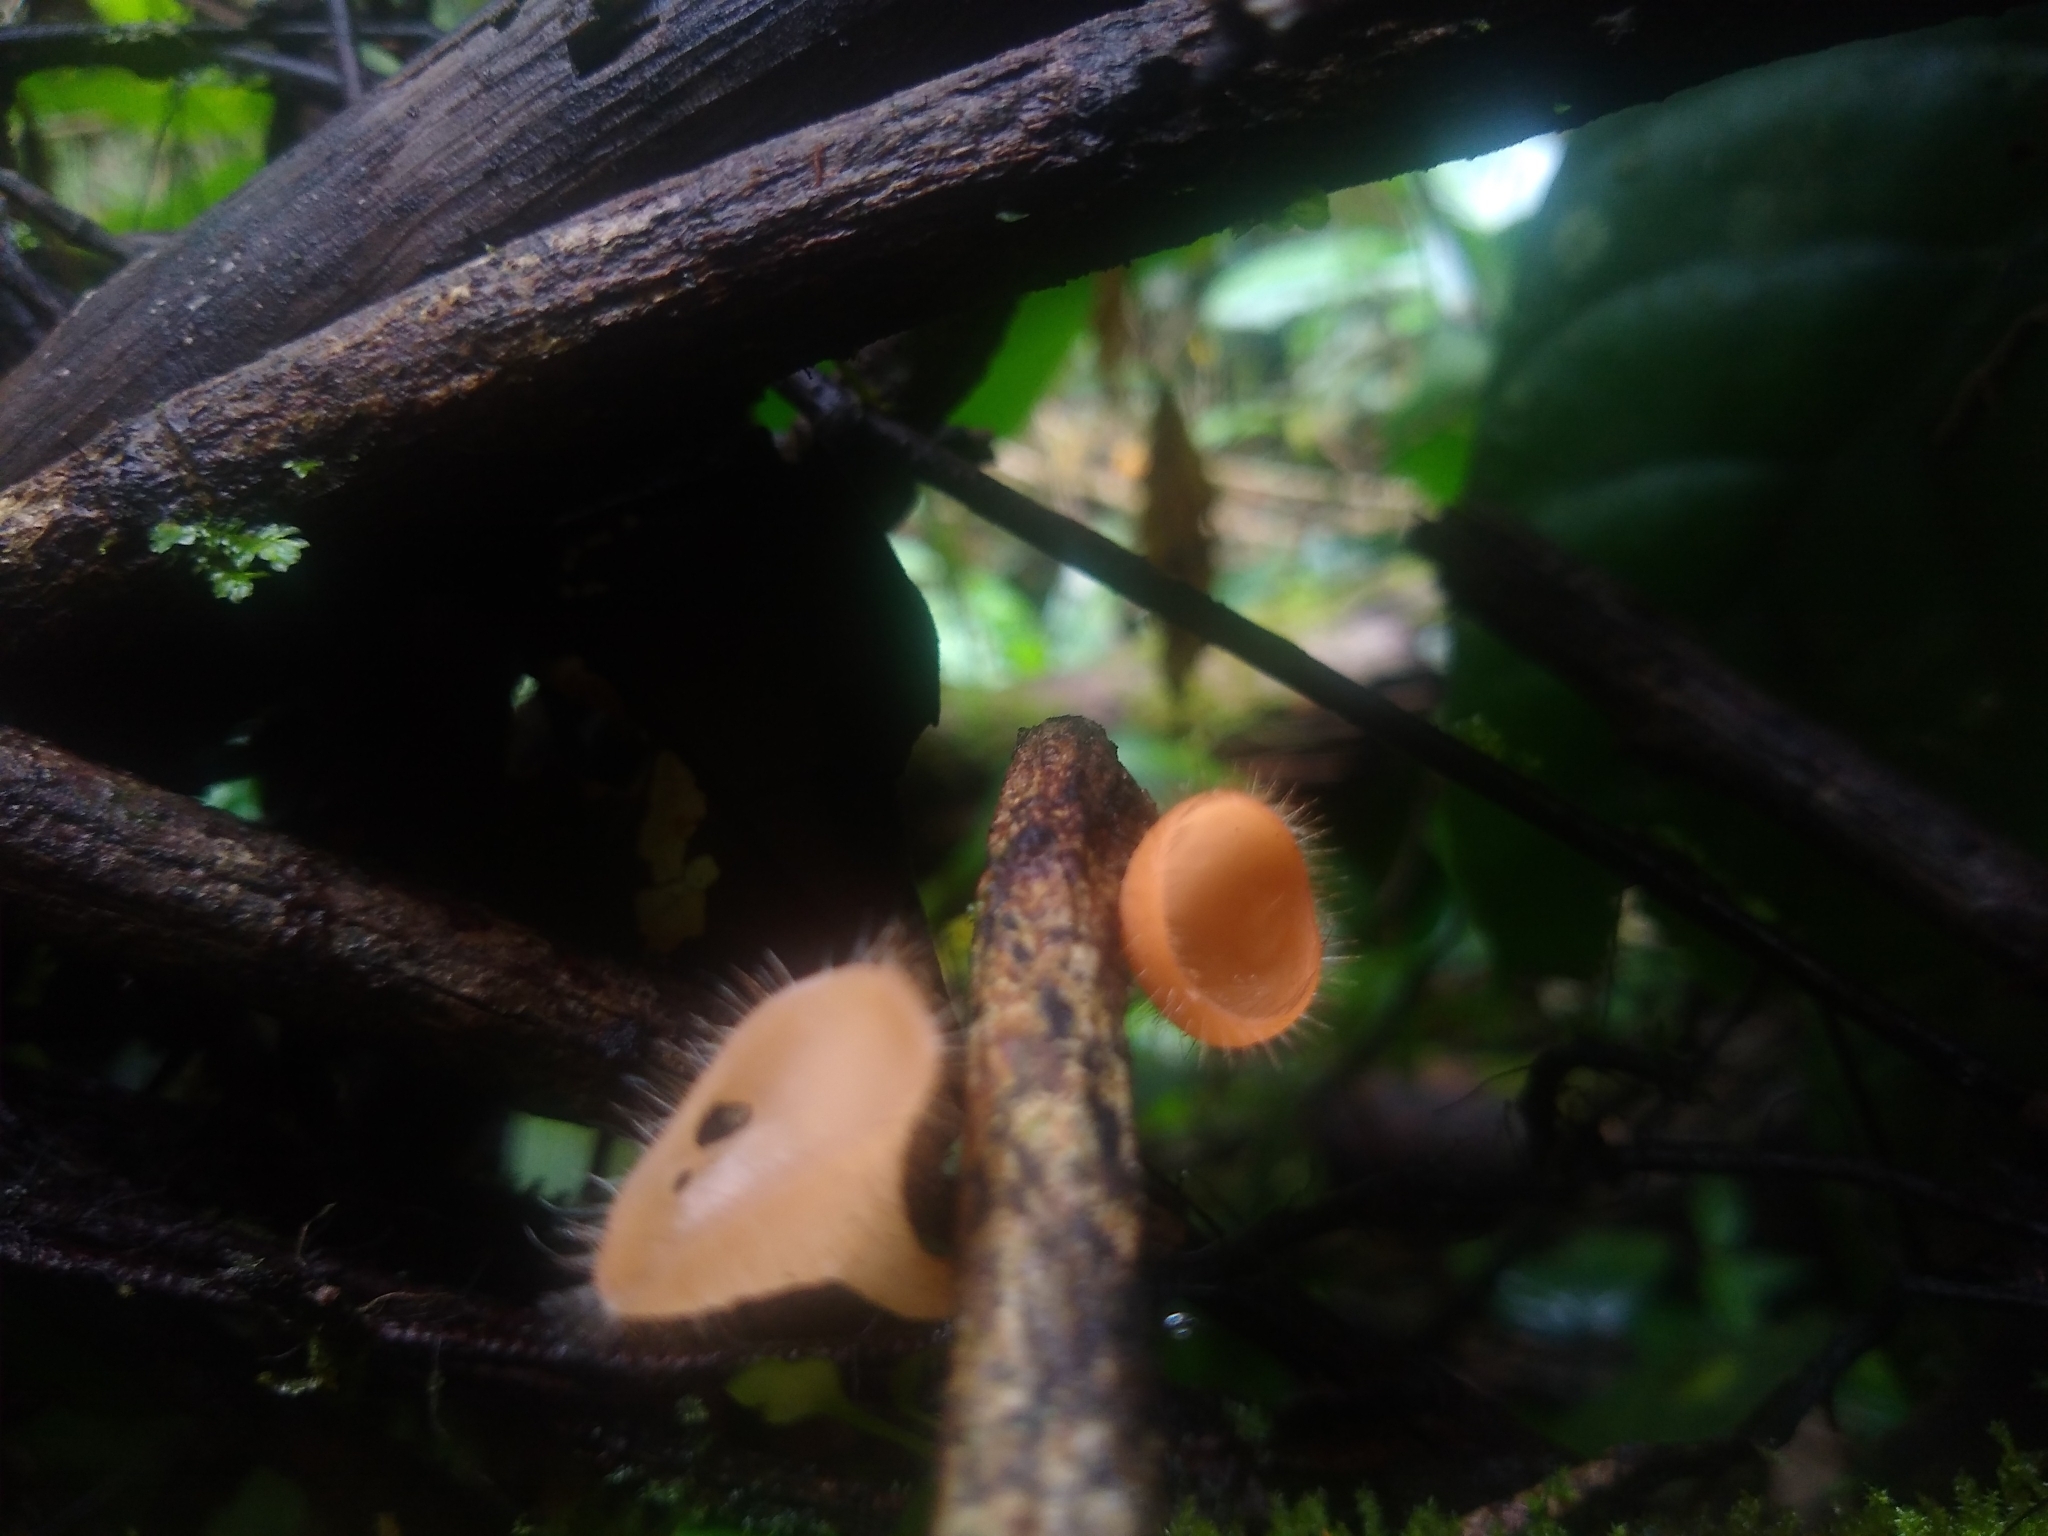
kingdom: Fungi
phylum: Ascomycota
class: Pezizomycetes
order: Pezizales
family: Sarcoscyphaceae
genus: Cookeina
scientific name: Cookeina tricholoma
